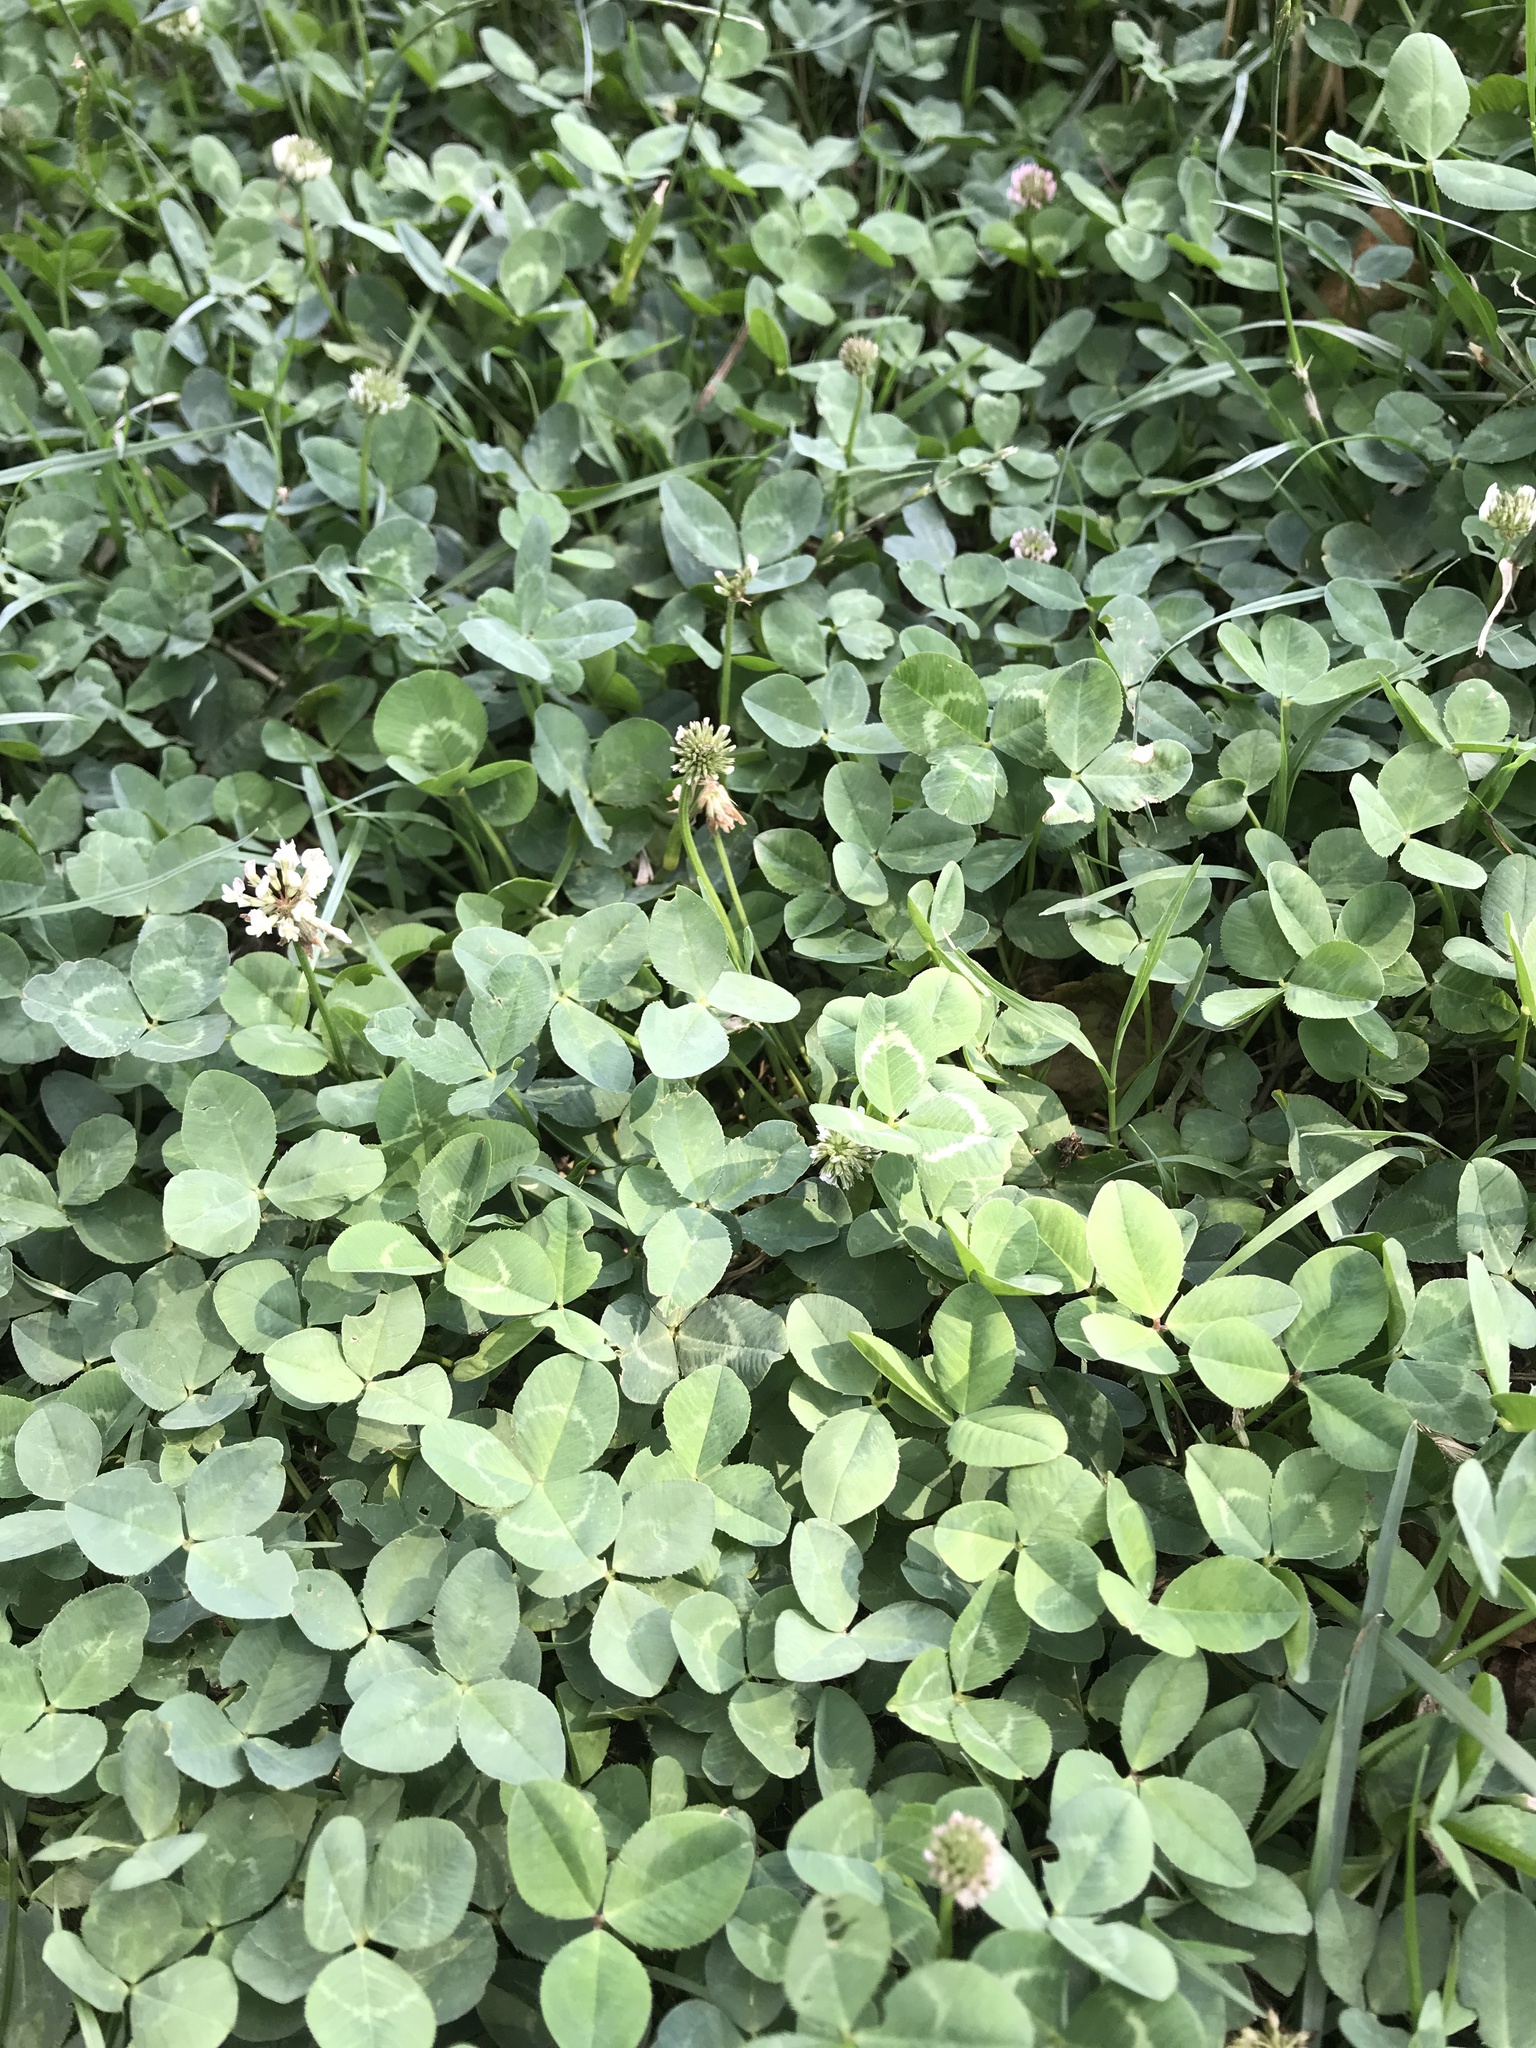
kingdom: Plantae
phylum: Tracheophyta
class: Magnoliopsida
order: Fabales
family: Fabaceae
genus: Trifolium
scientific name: Trifolium repens
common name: White clover
